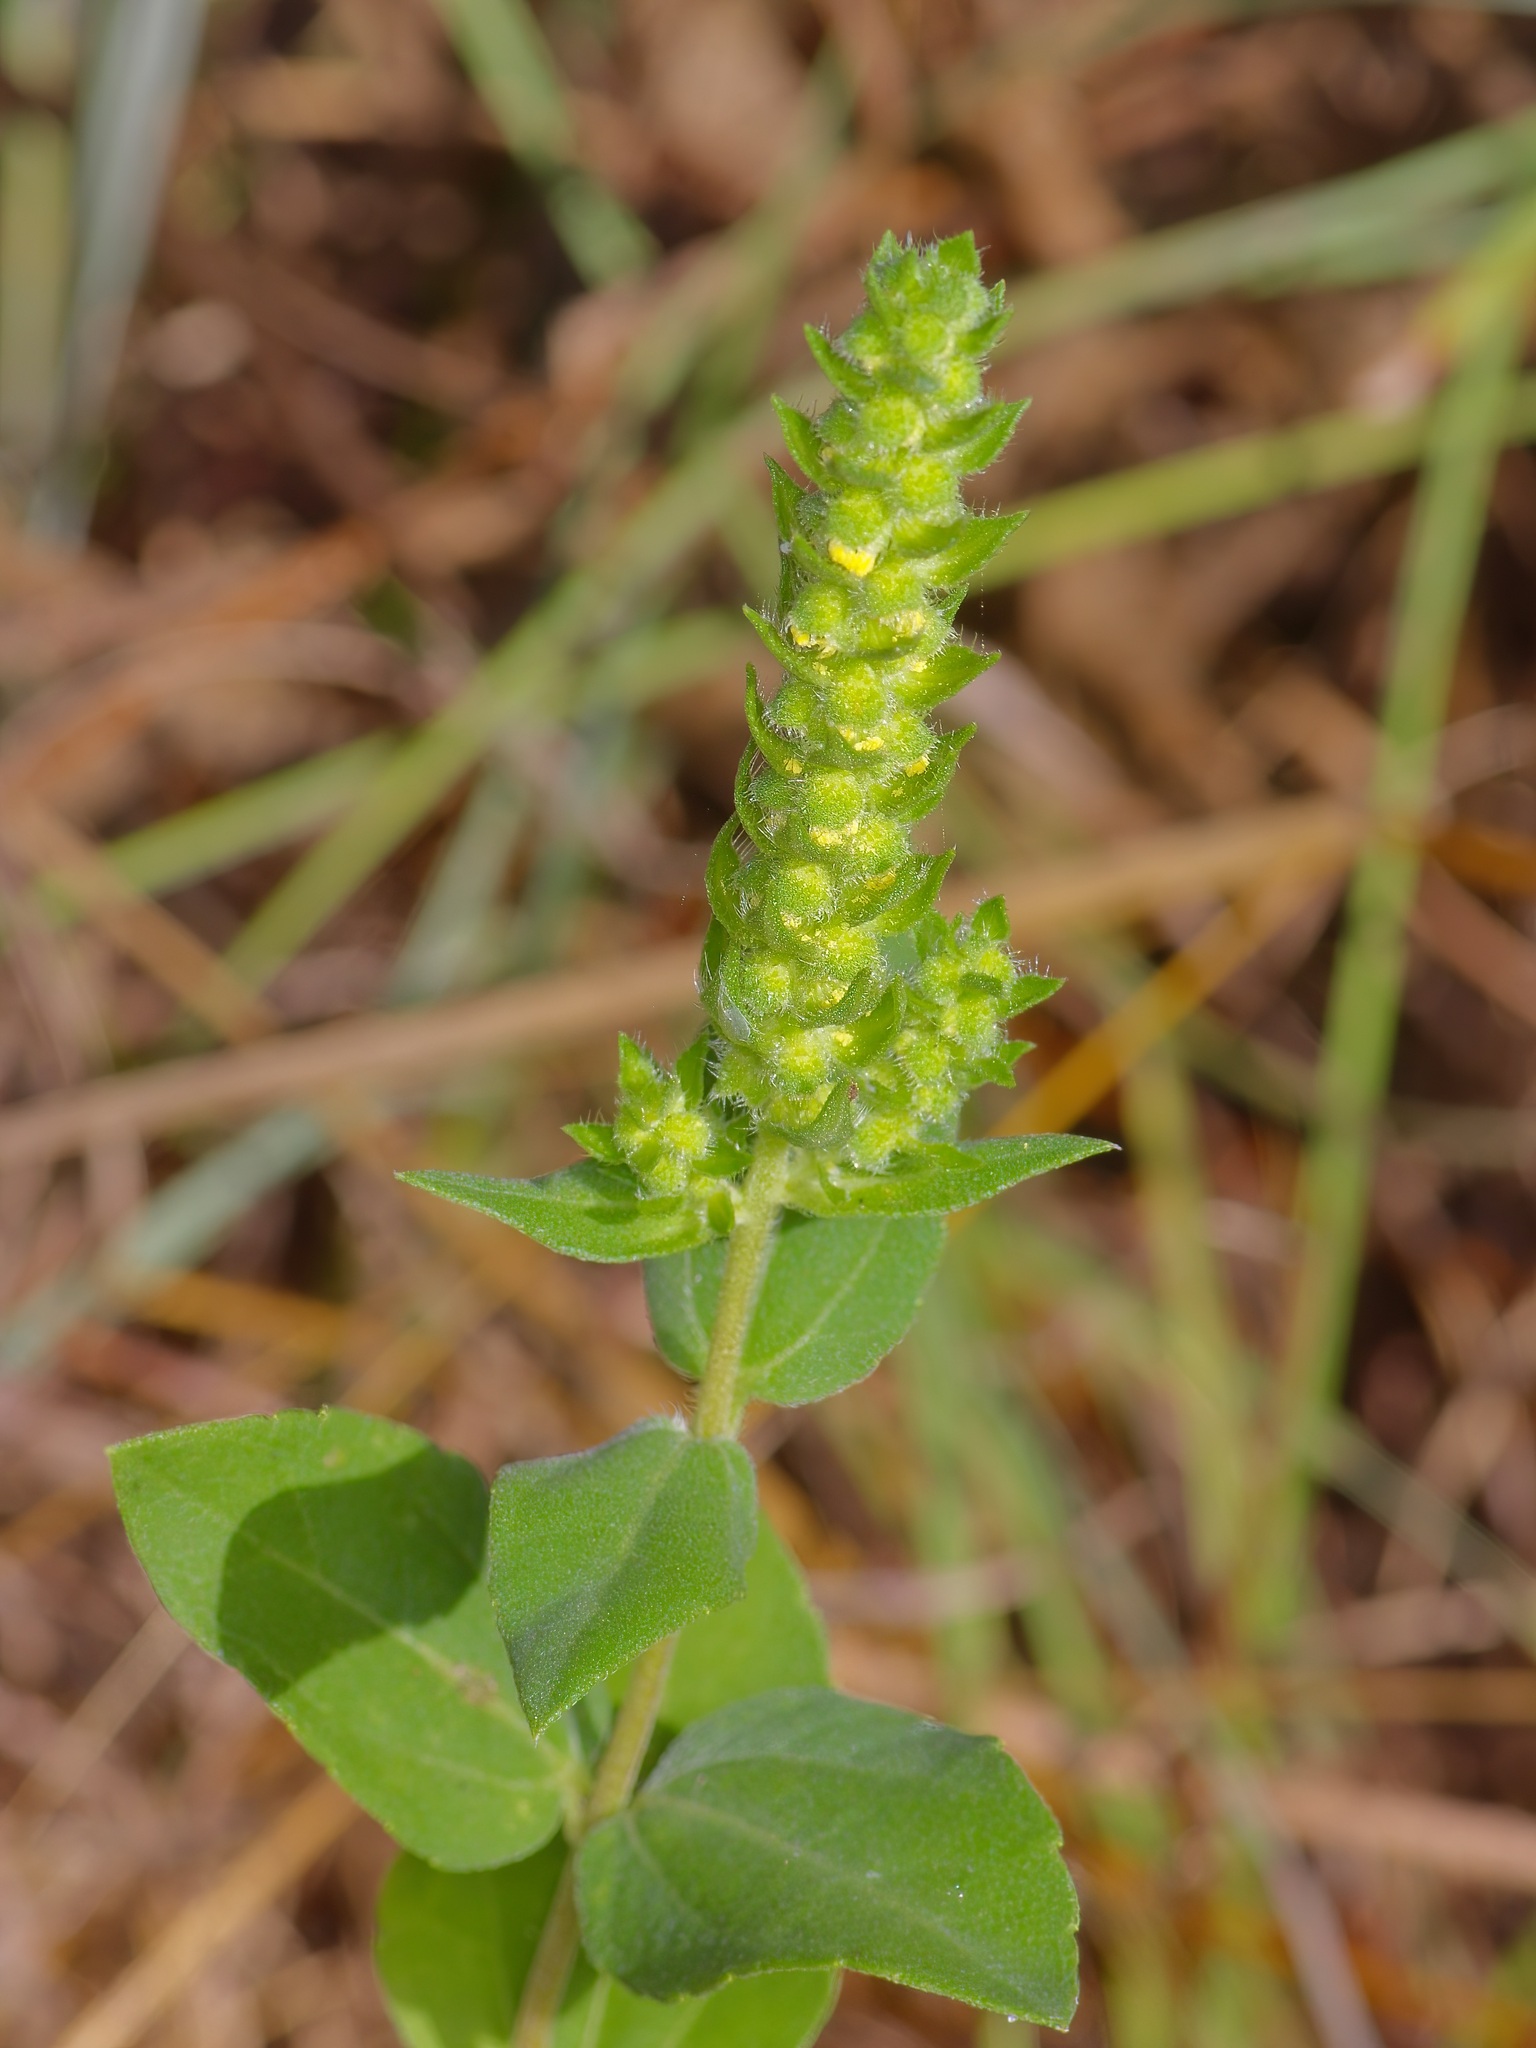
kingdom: Plantae
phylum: Tracheophyta
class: Magnoliopsida
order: Asterales
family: Asteraceae
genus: Iva
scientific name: Iva annua
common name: Marsh-elder
